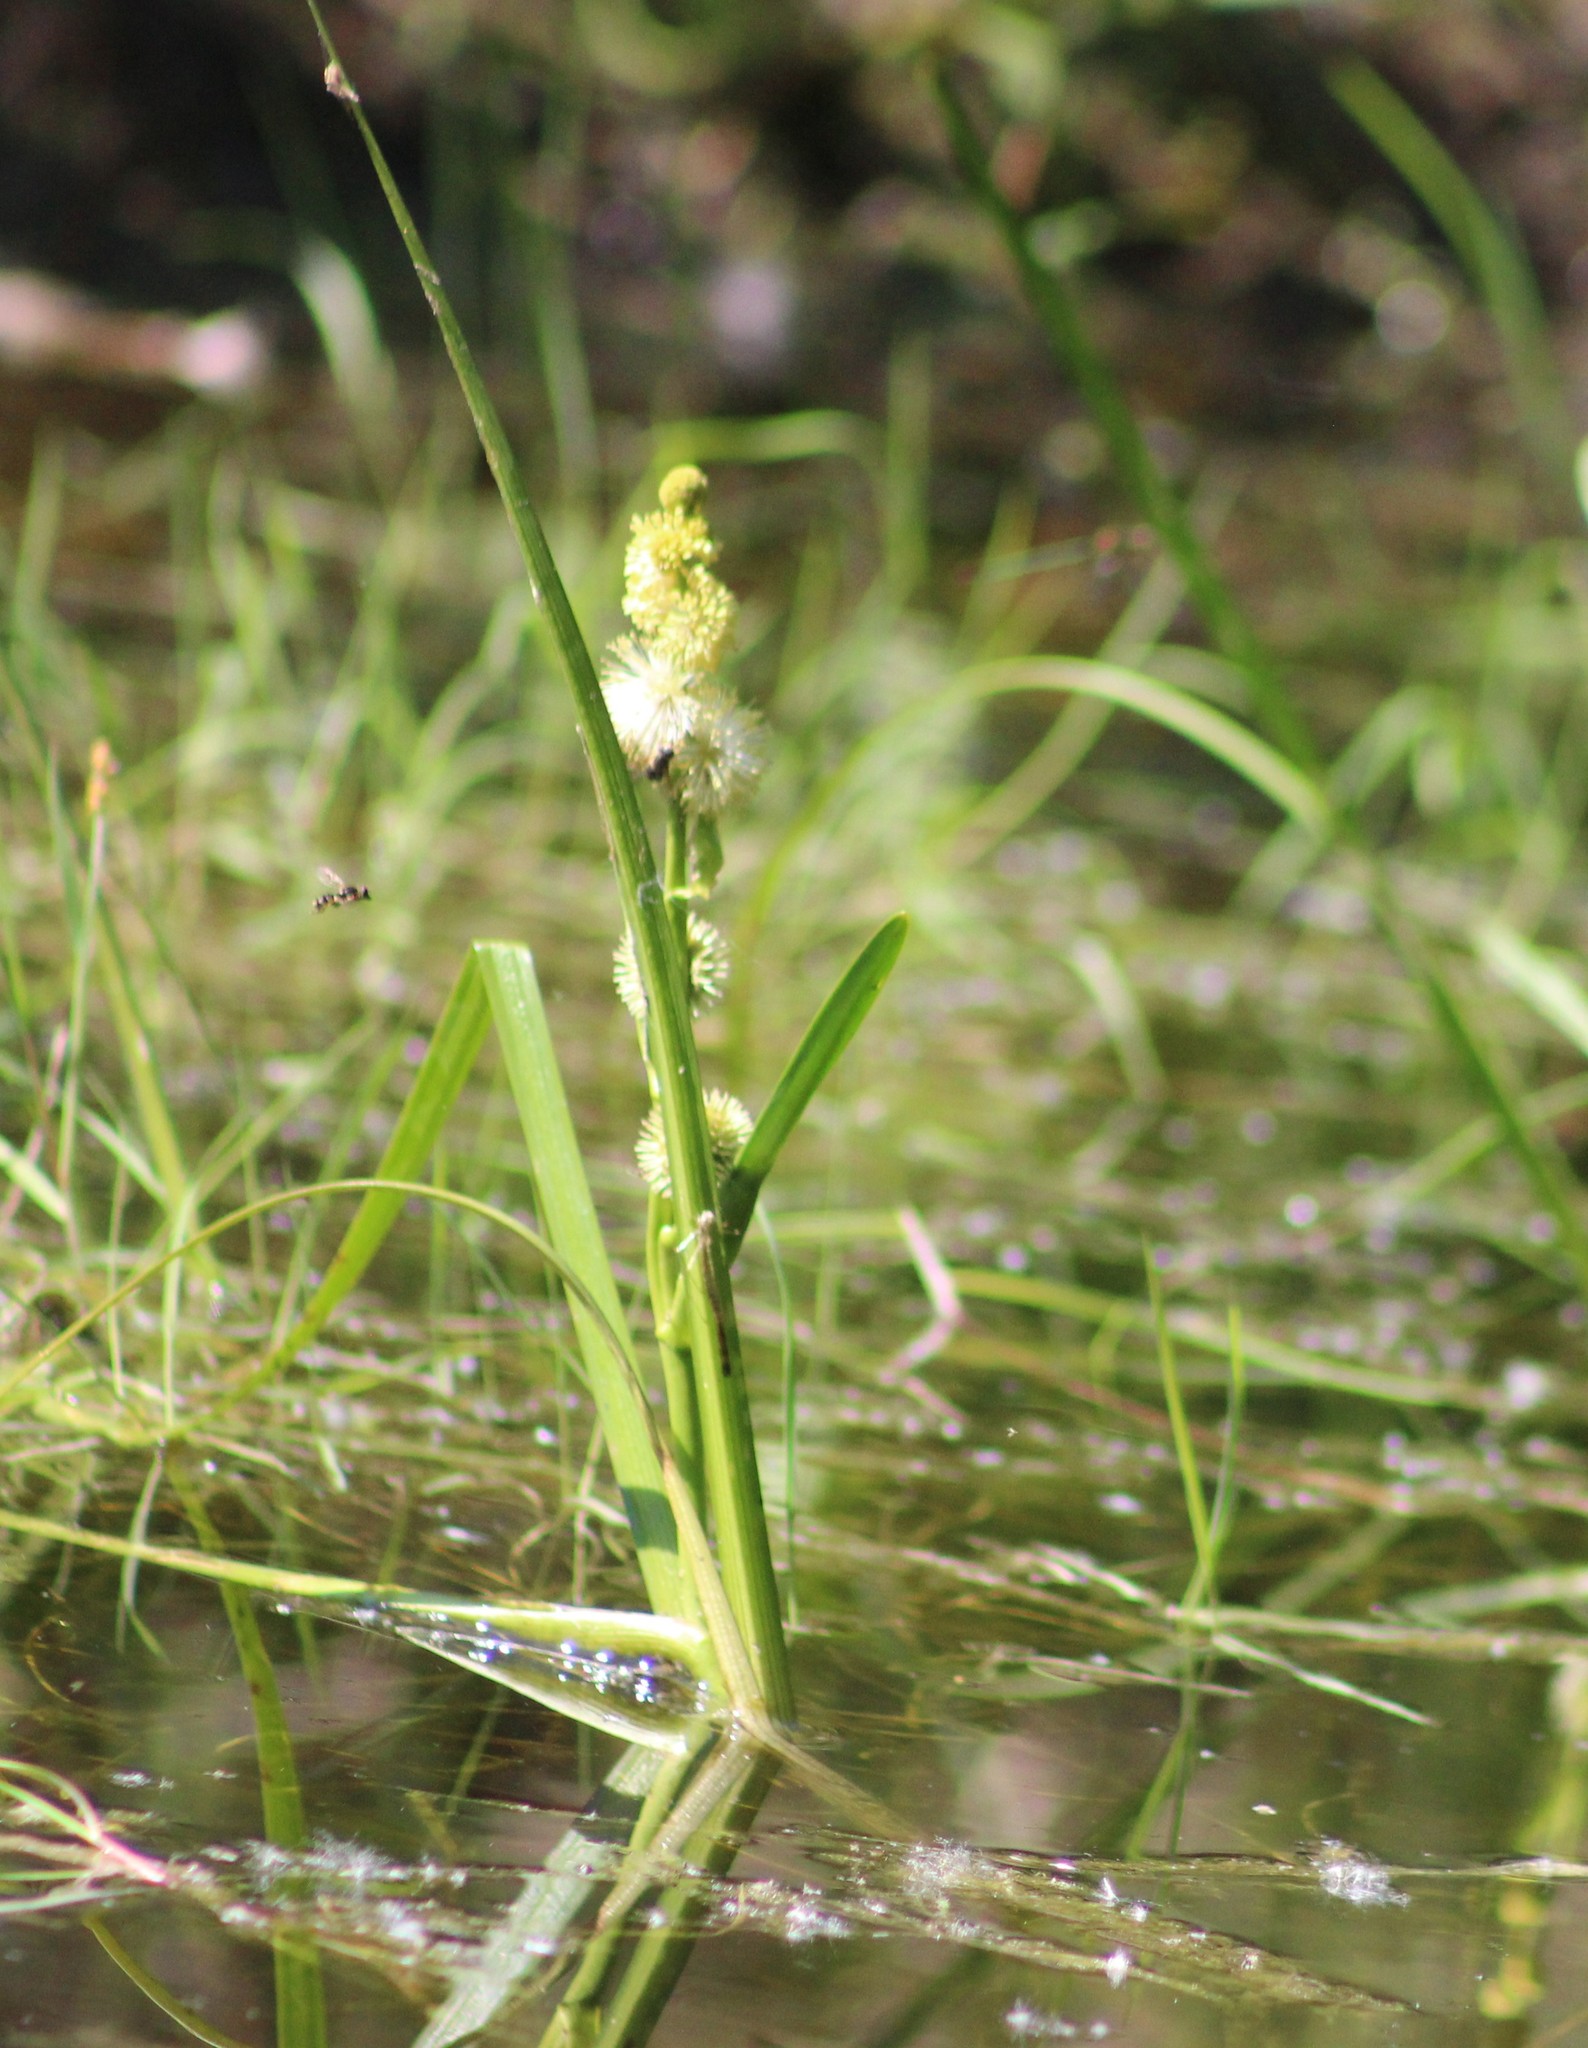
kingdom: Plantae
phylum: Tracheophyta
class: Liliopsida
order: Poales
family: Typhaceae
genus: Sparganium
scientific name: Sparganium emersum
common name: Unbranched bur-reed
